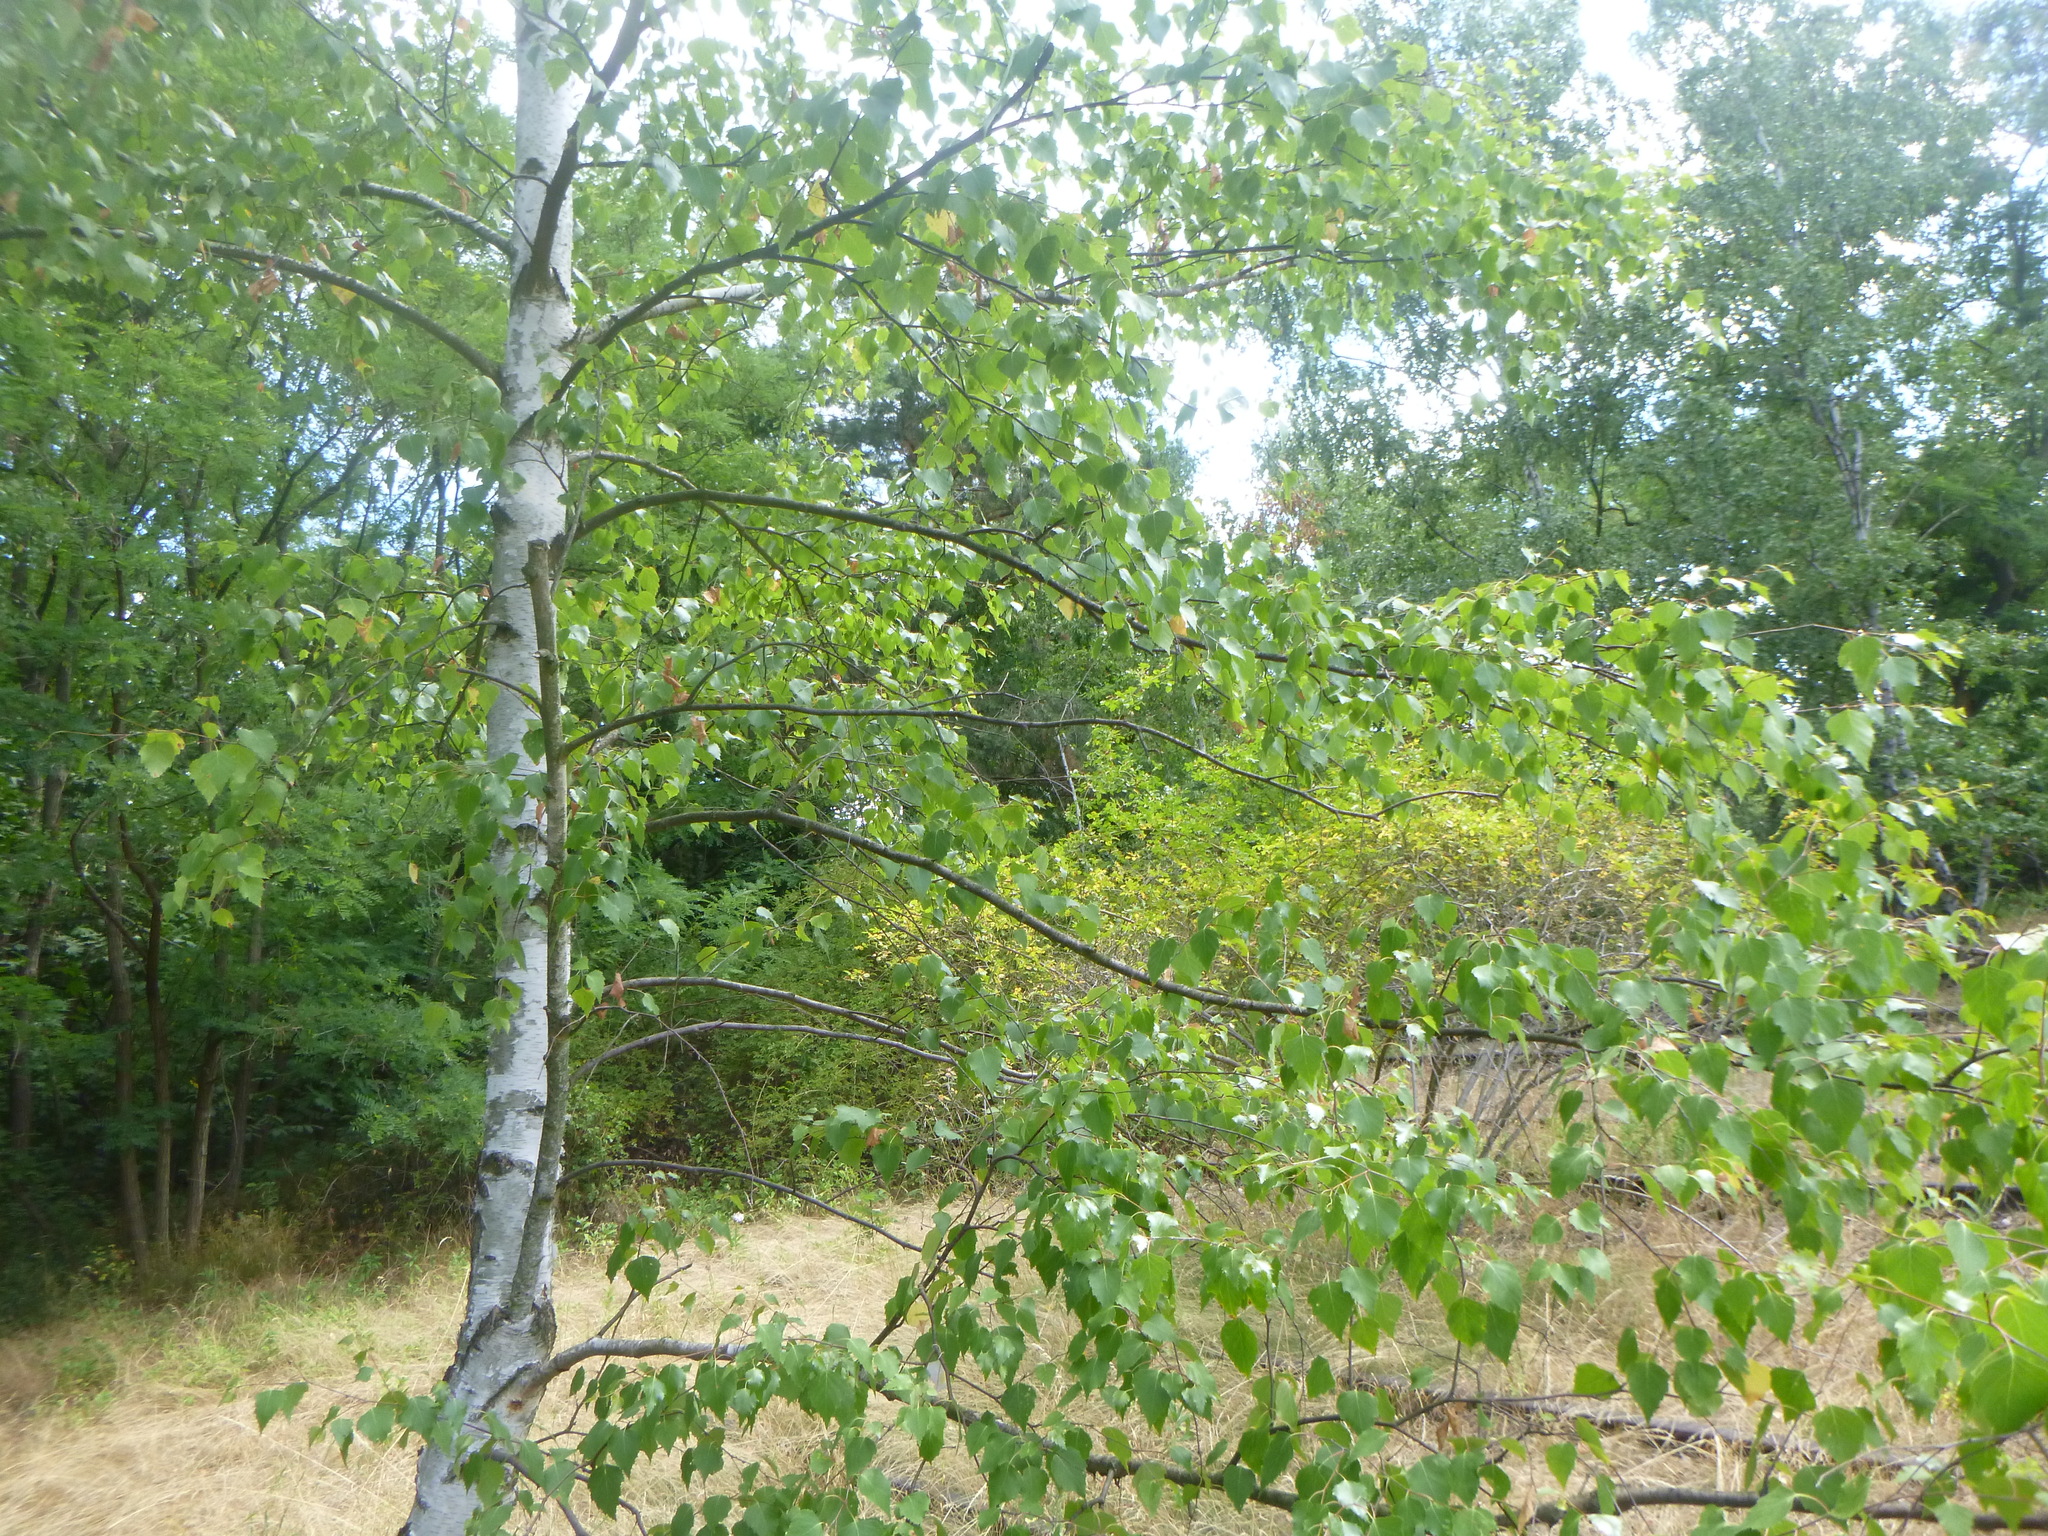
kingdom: Plantae
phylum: Tracheophyta
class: Magnoliopsida
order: Fagales
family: Betulaceae
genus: Betula
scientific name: Betula pendula
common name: Silver birch
